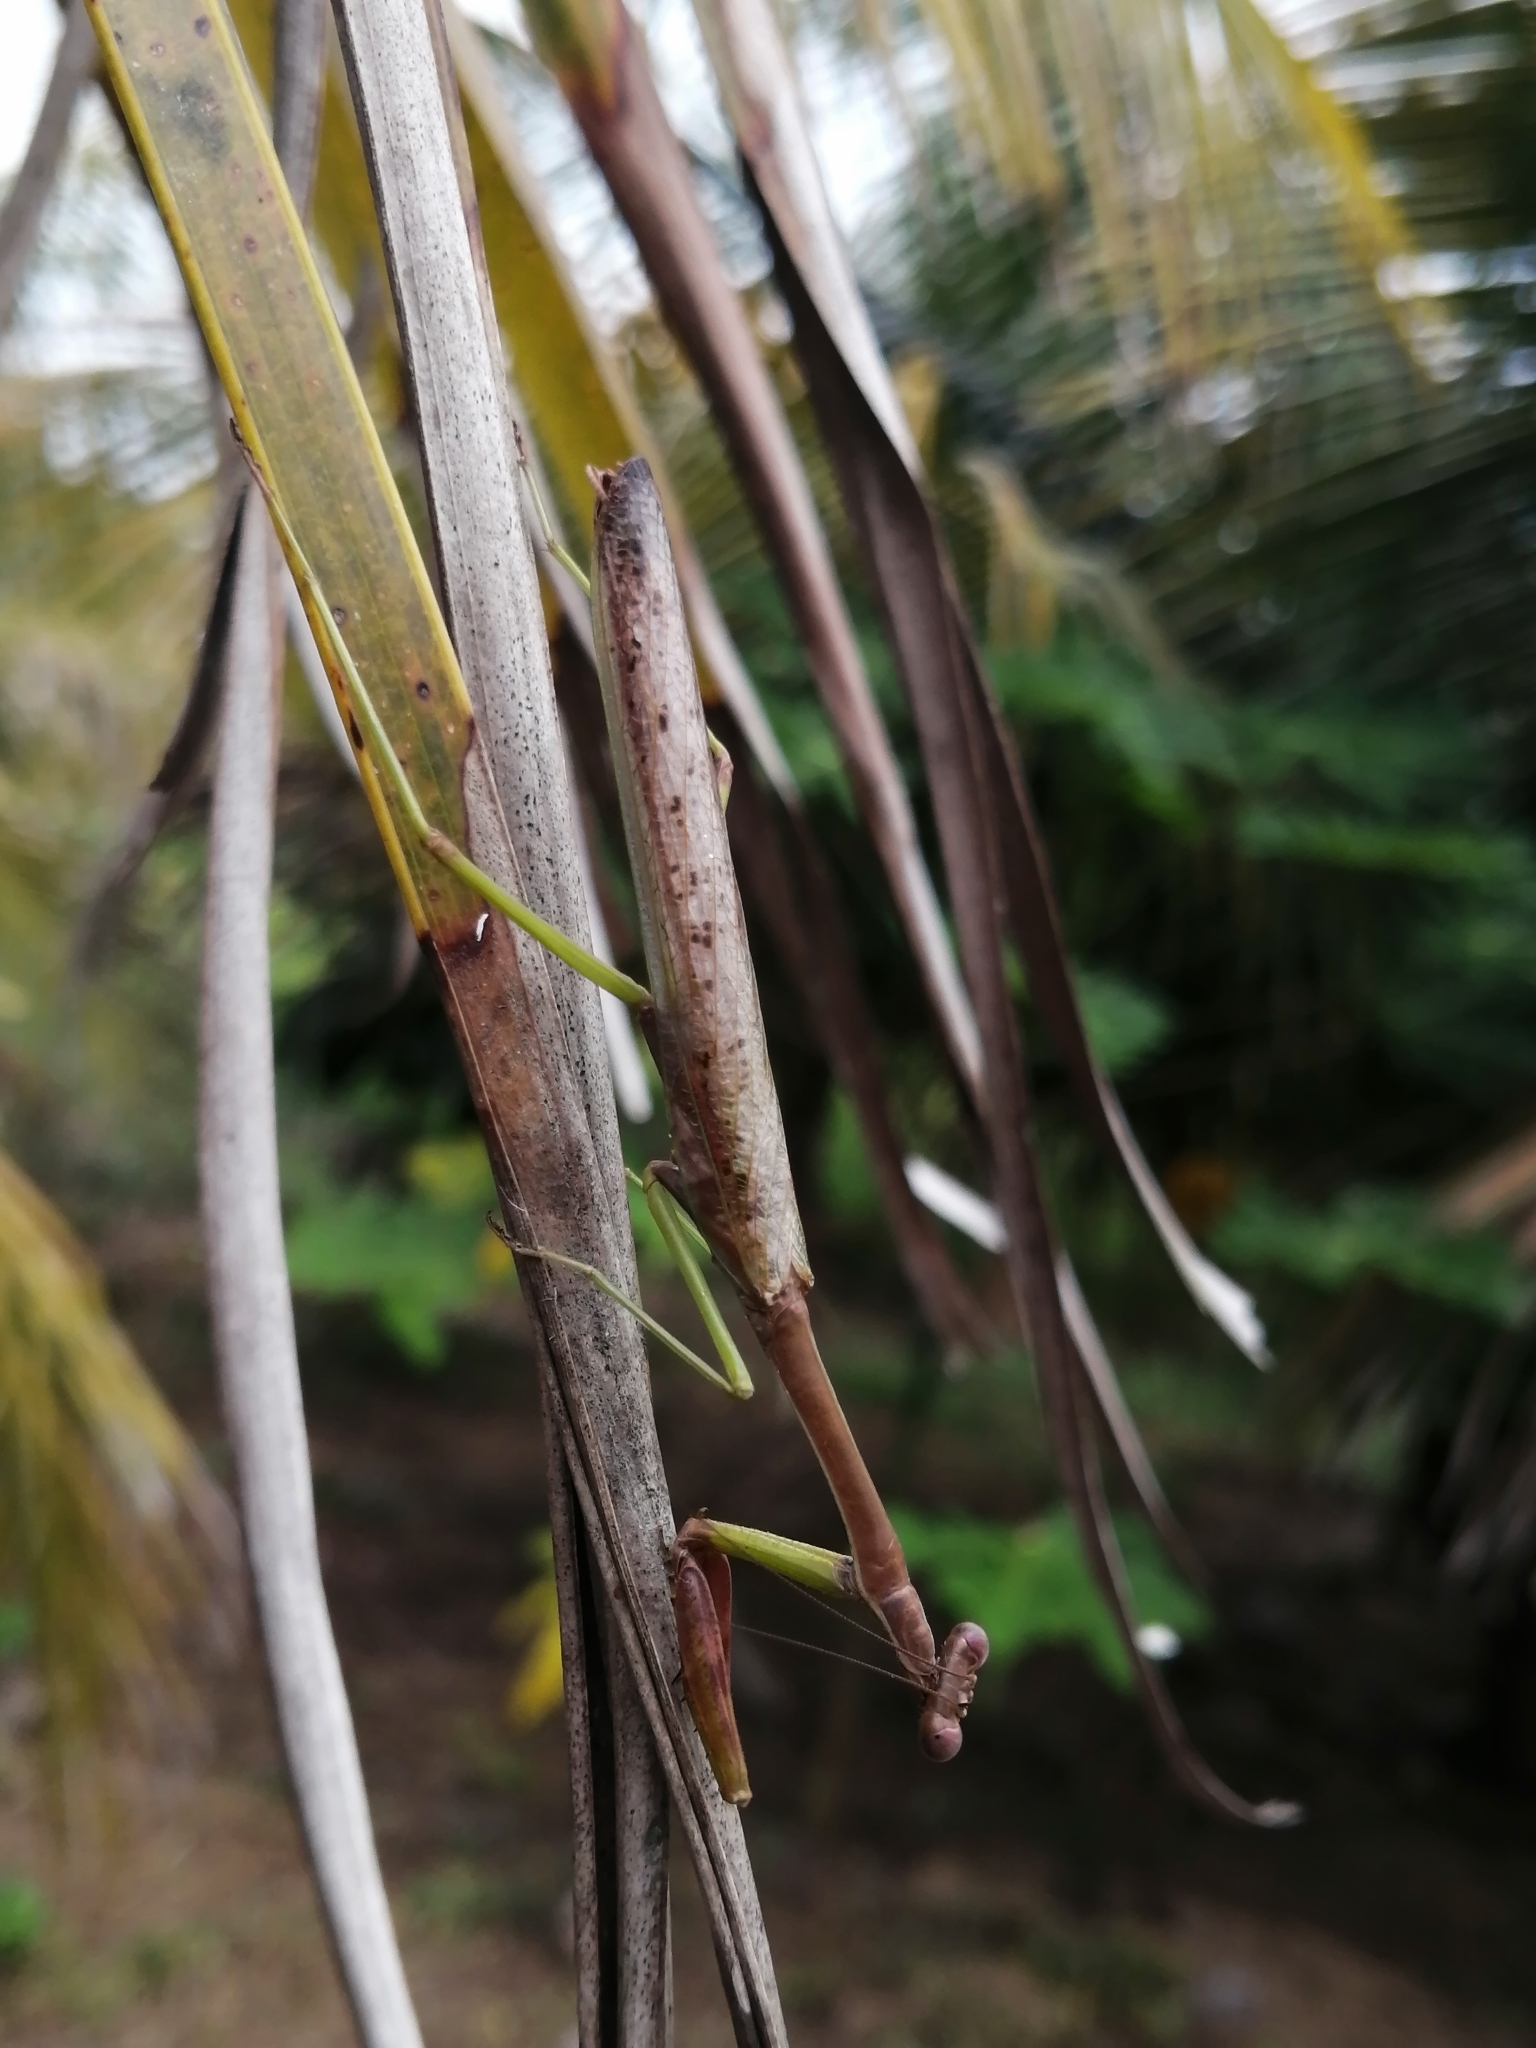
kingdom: Animalia
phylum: Arthropoda
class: Insecta
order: Mantodea
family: Mantidae
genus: Stagmomantis
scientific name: Stagmomantis carolina
